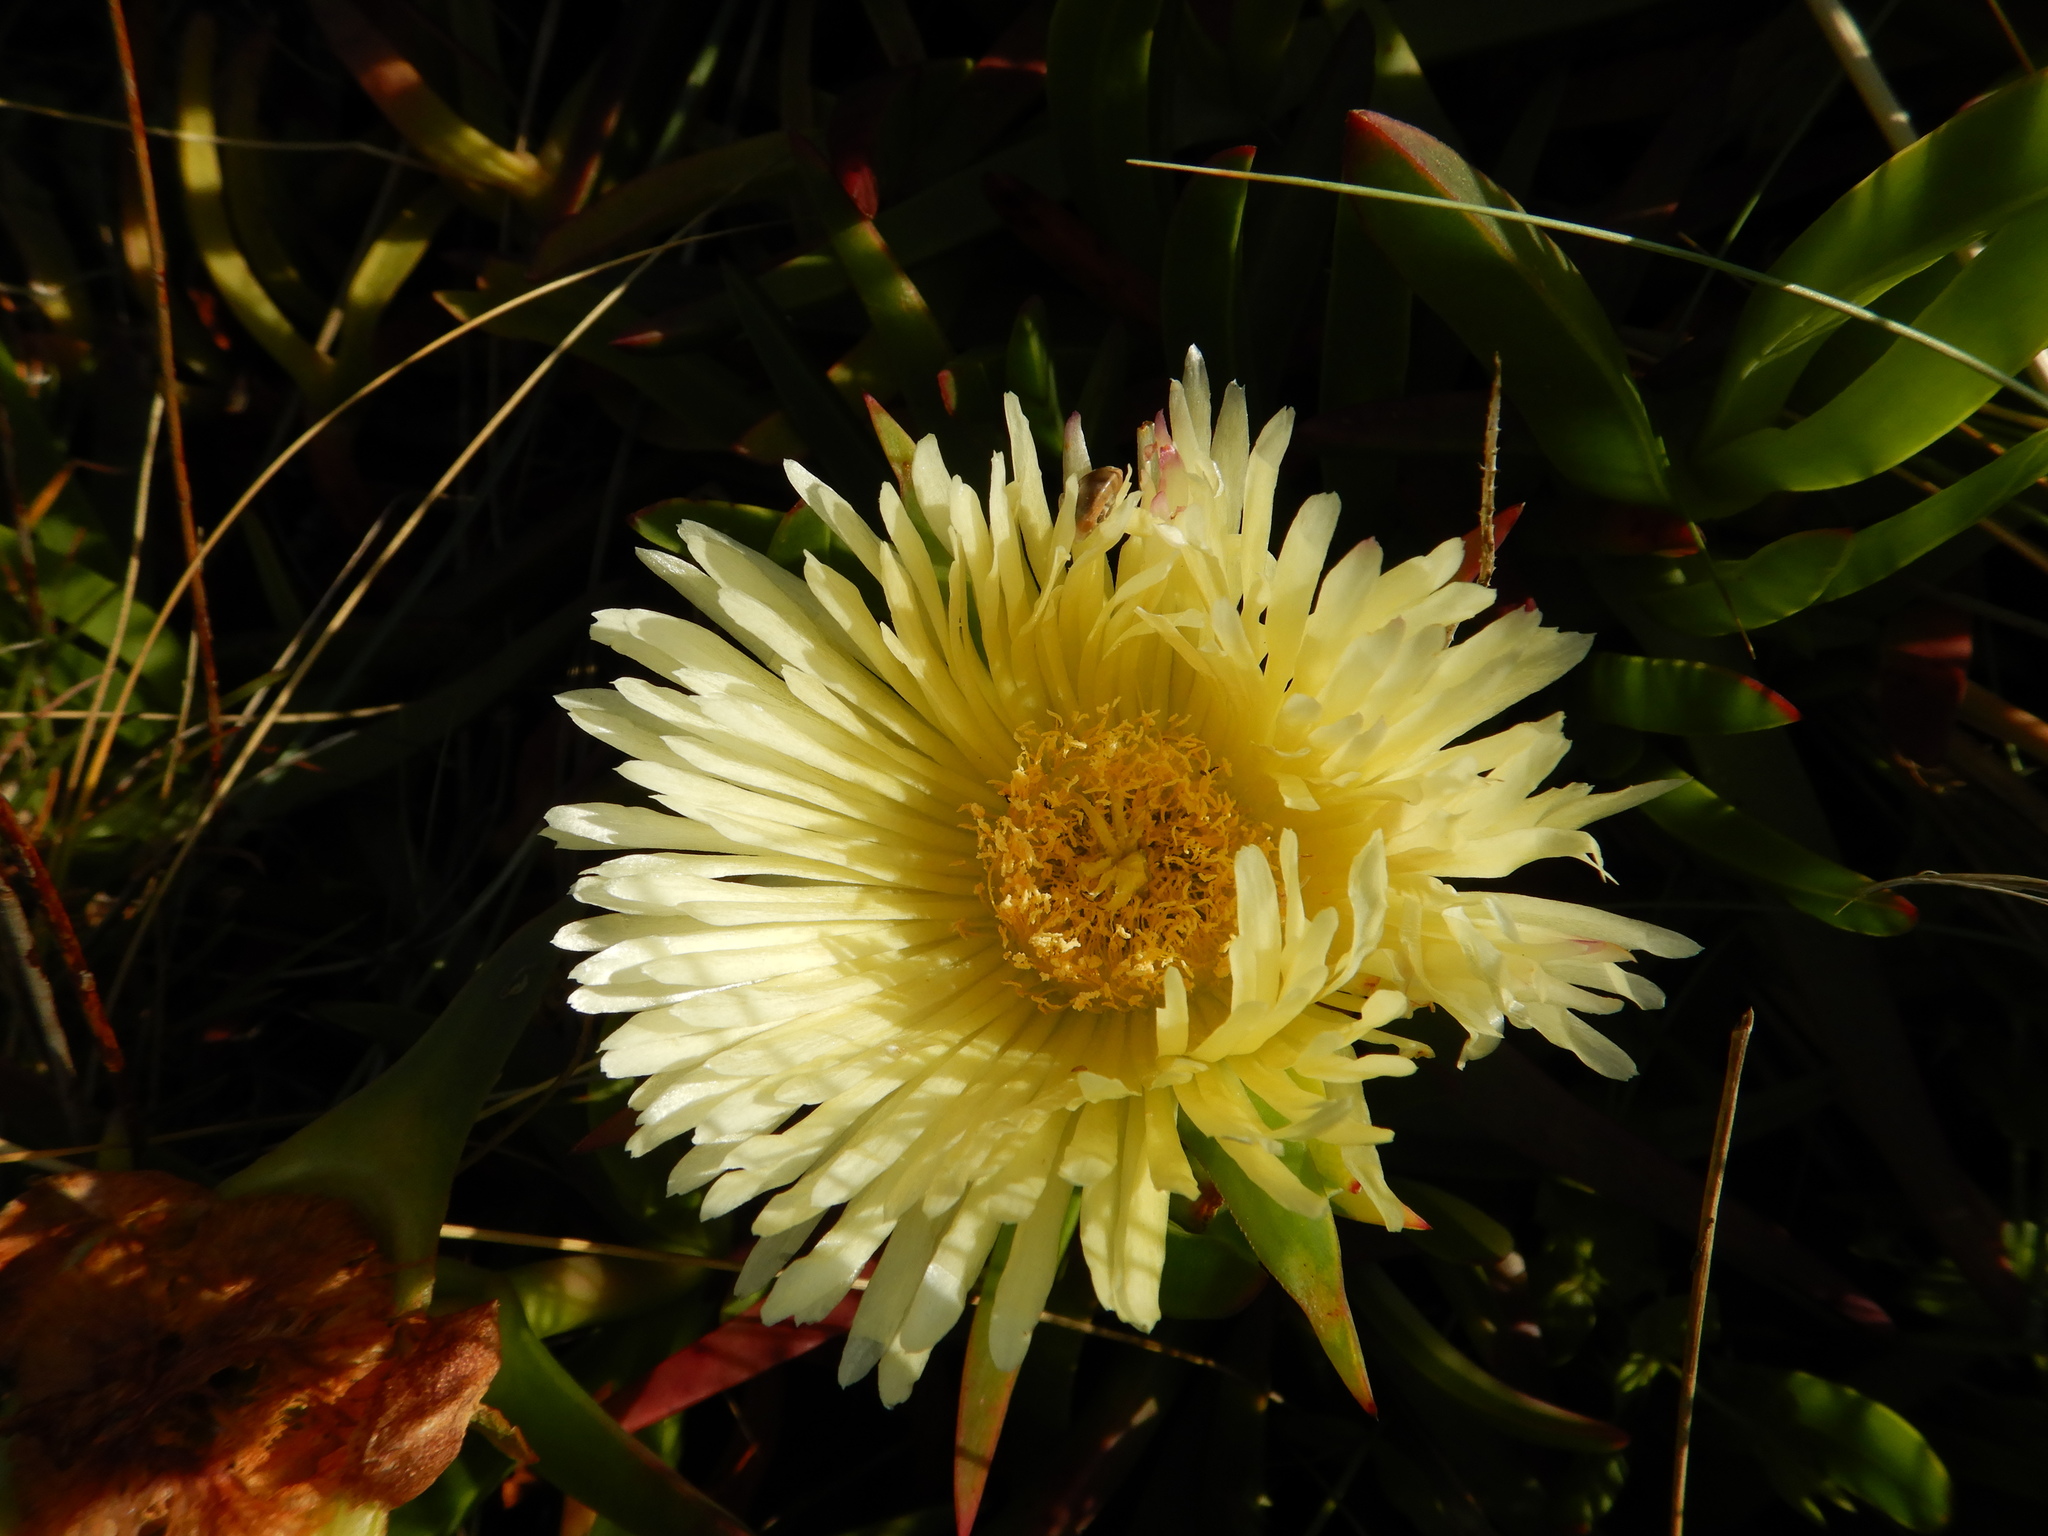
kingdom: Plantae
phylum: Tracheophyta
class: Magnoliopsida
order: Caryophyllales
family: Aizoaceae
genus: Carpobrotus
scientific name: Carpobrotus edulis
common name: Hottentot-fig
